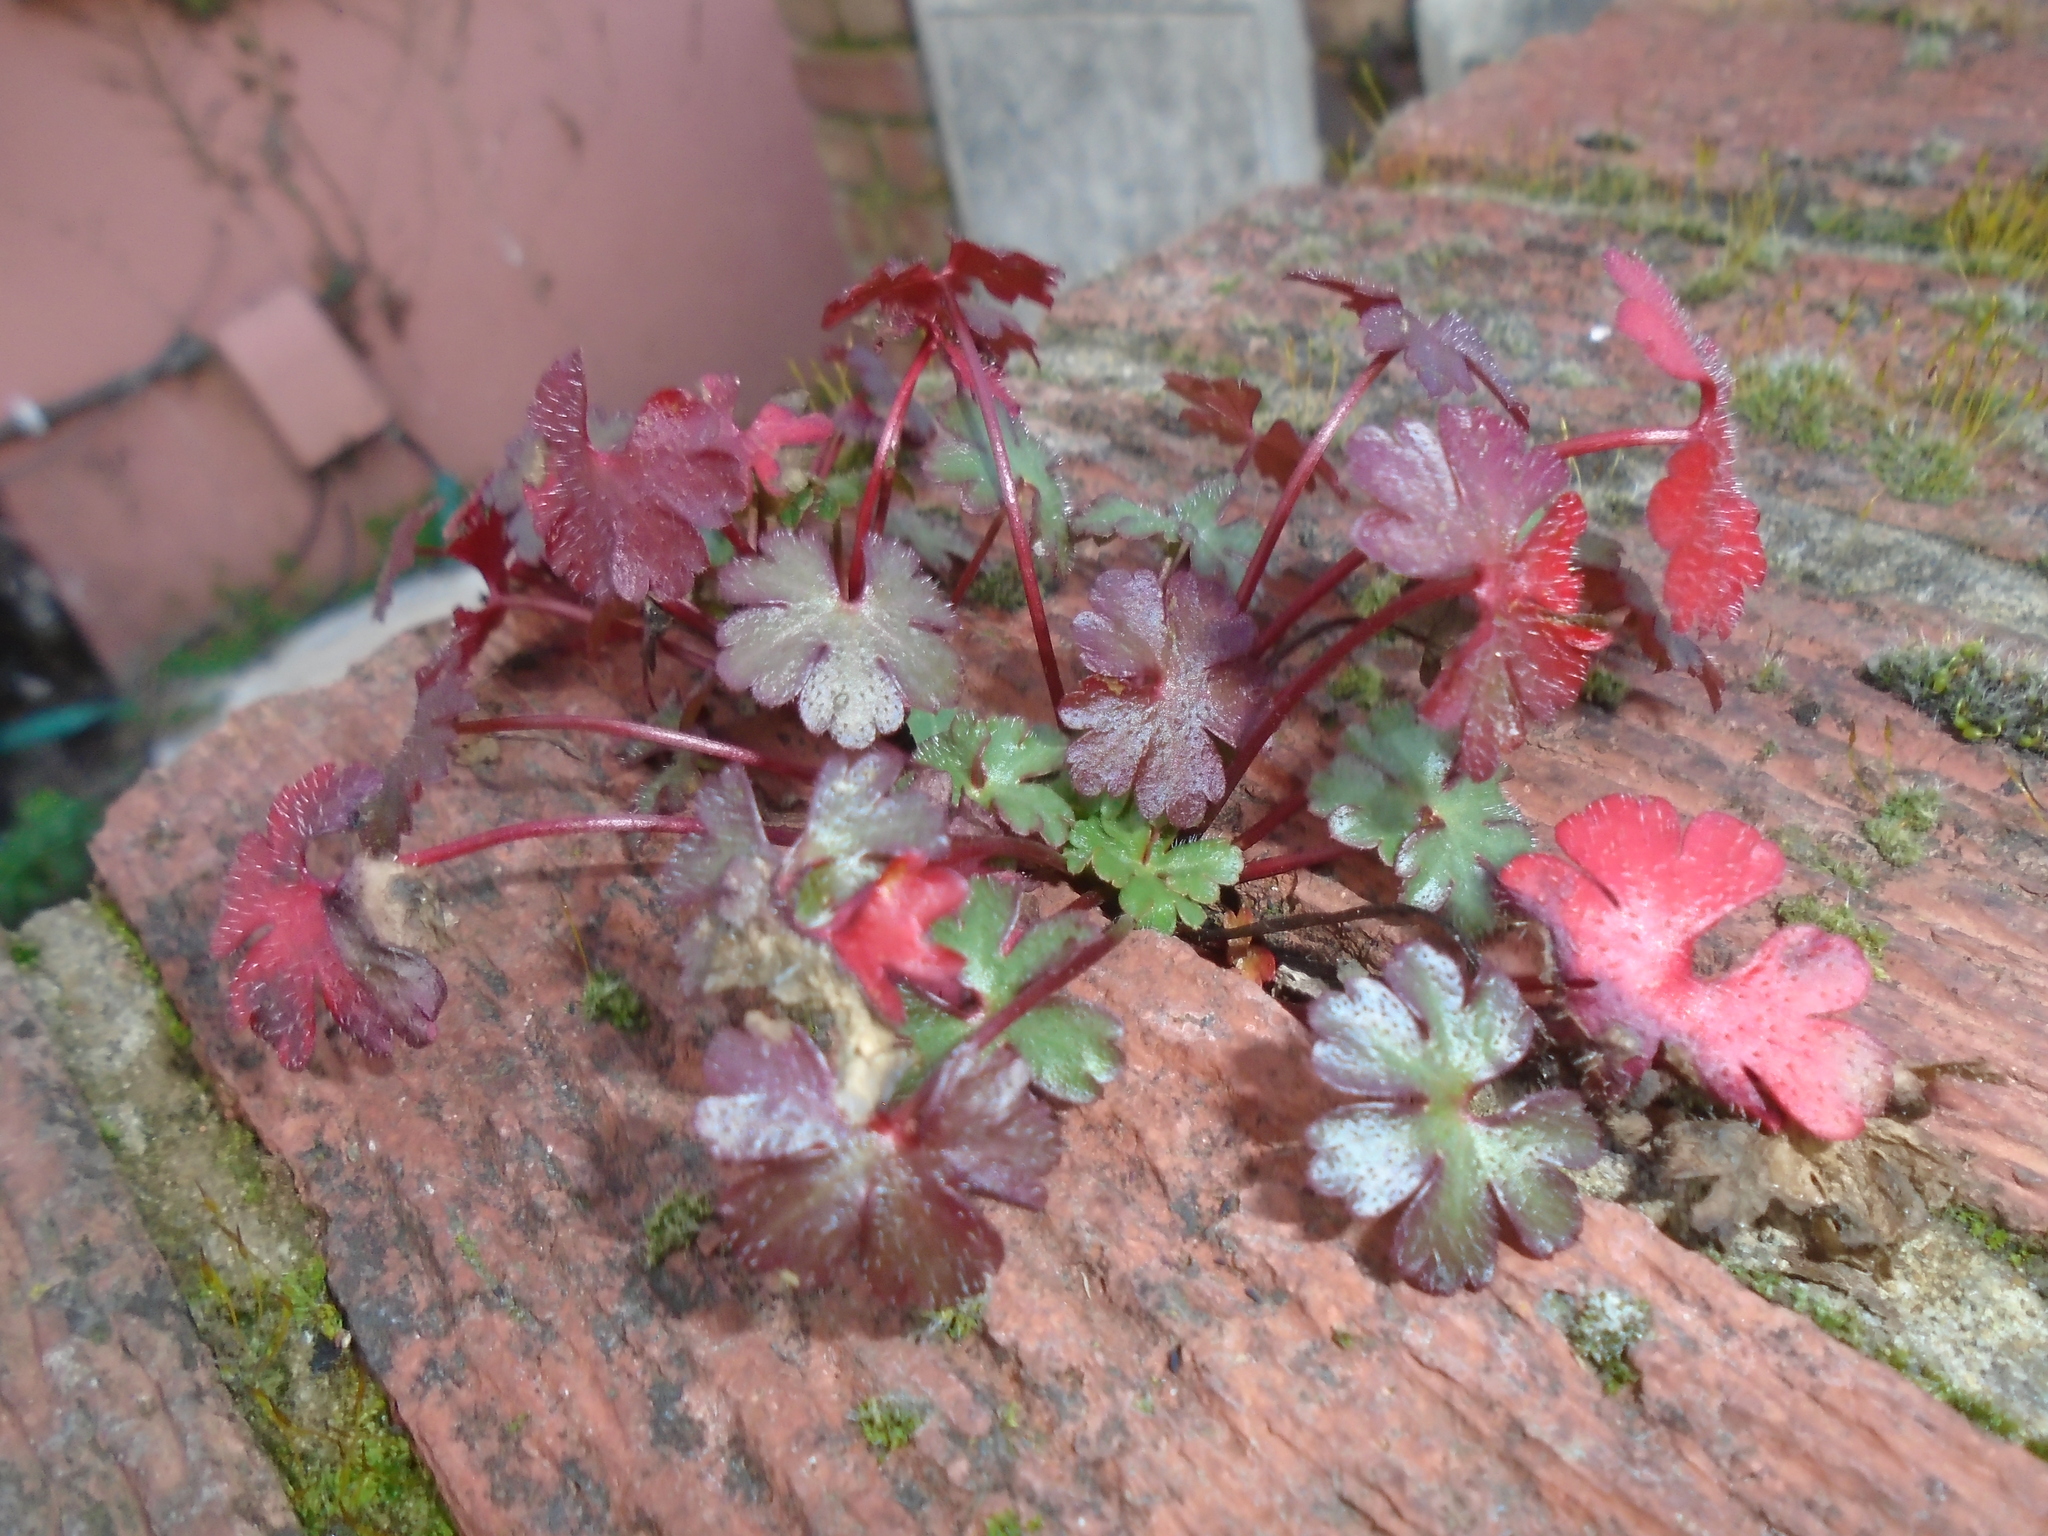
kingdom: Plantae
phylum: Tracheophyta
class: Magnoliopsida
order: Geraniales
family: Geraniaceae
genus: Geranium
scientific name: Geranium lucidum
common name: Shining crane's-bill
